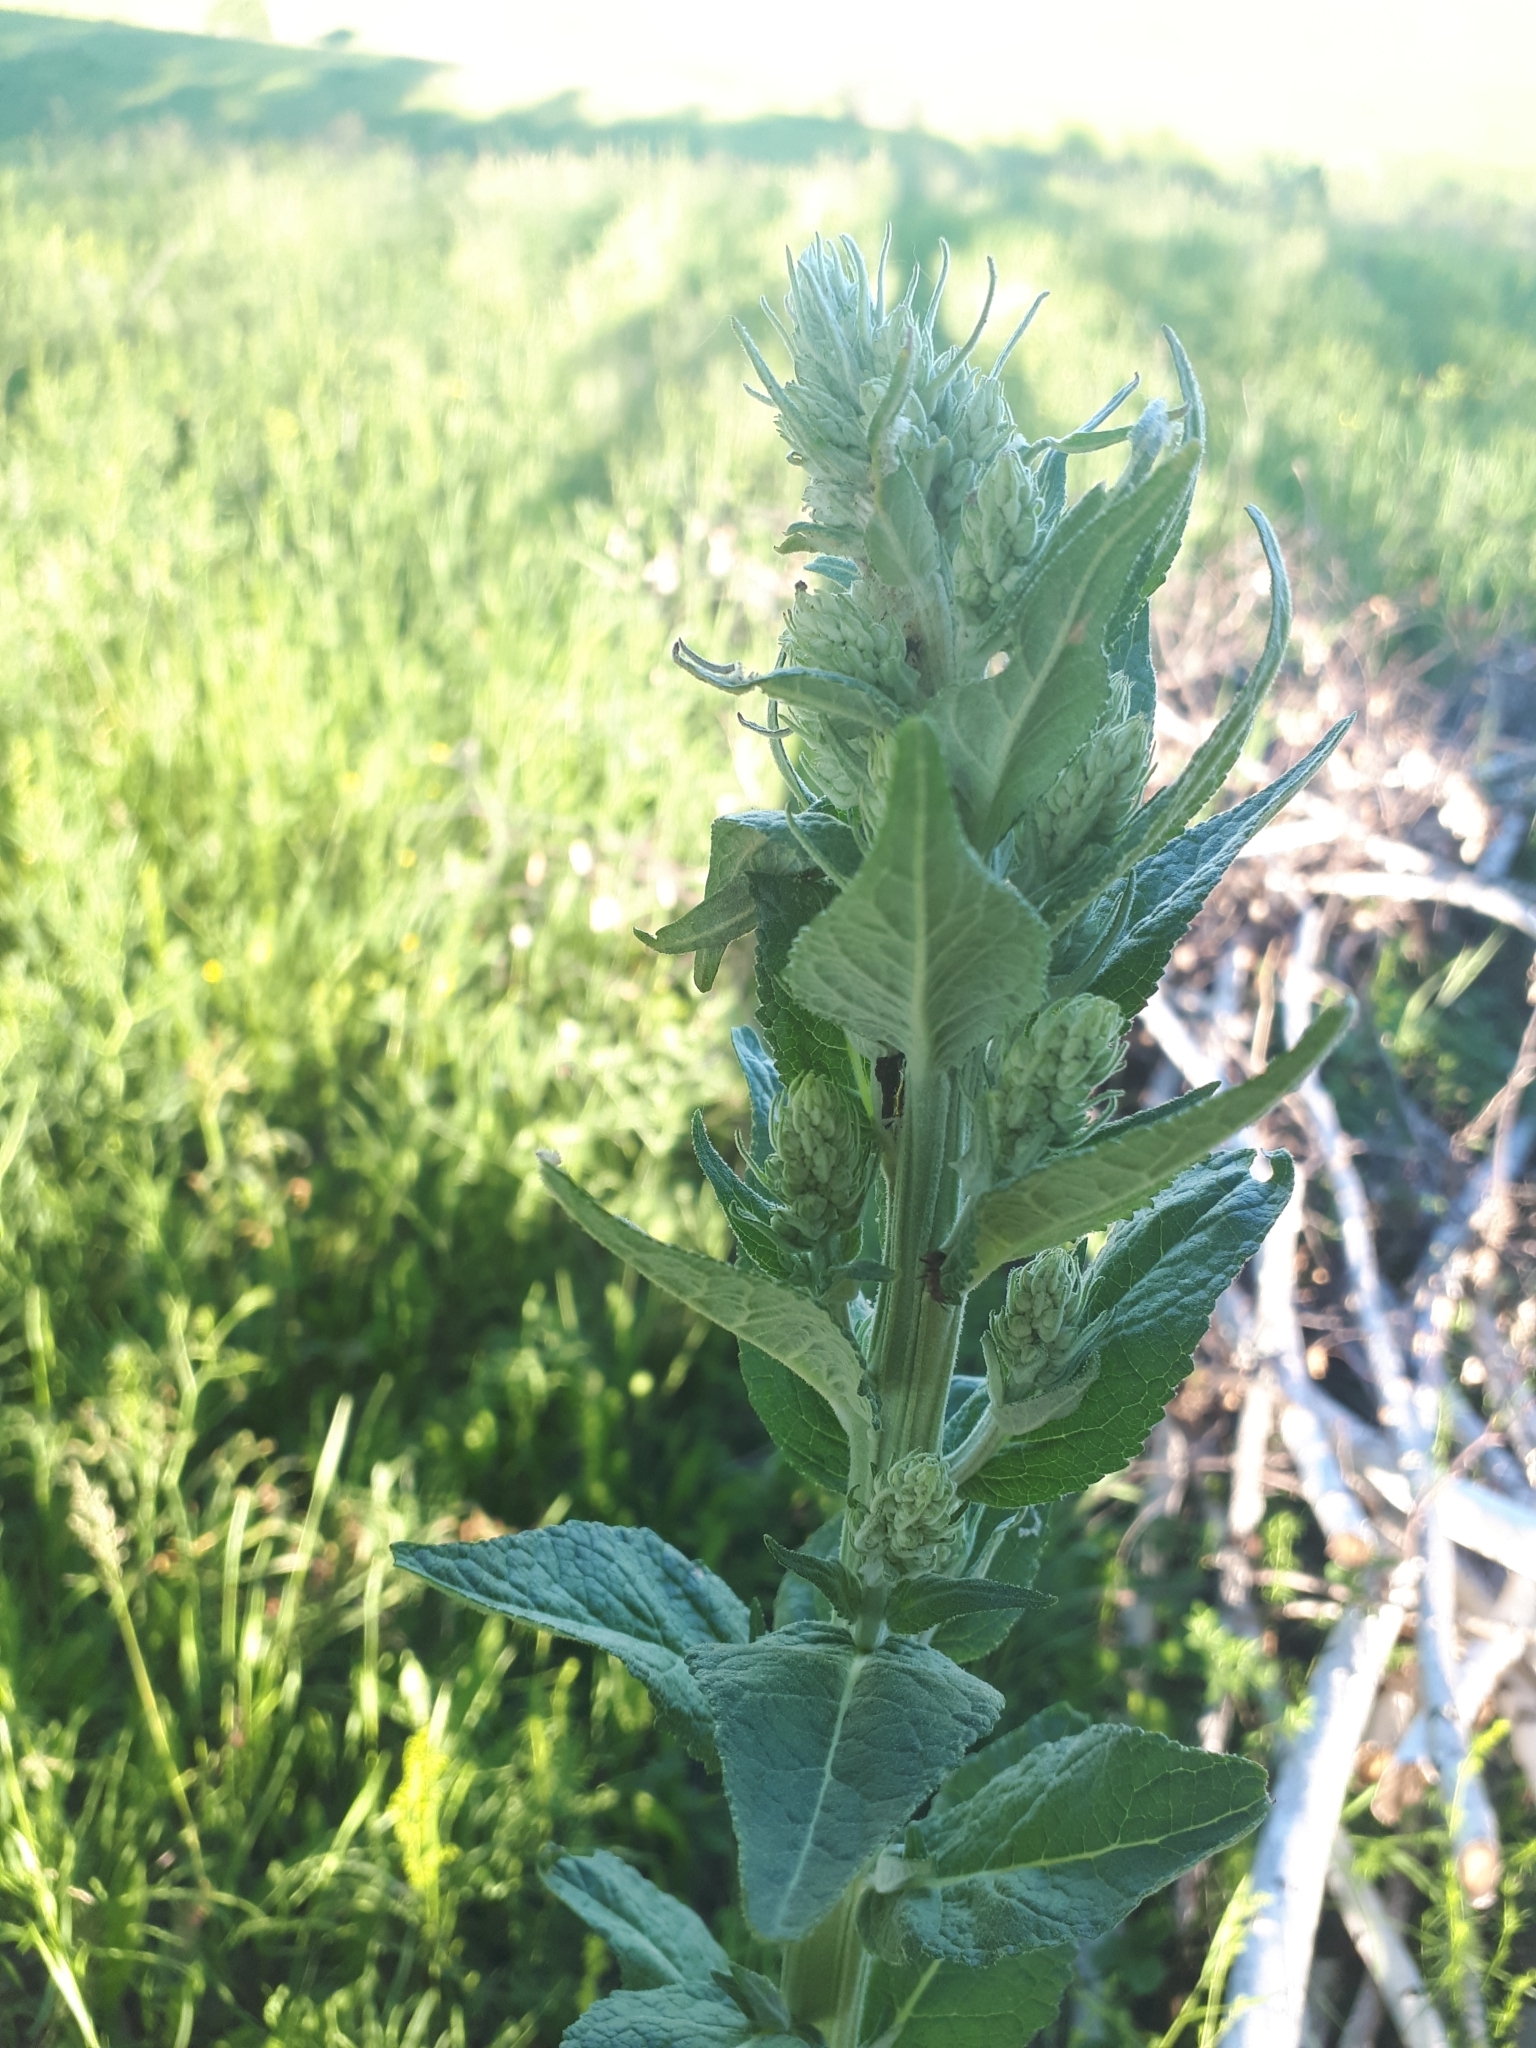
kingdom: Plantae
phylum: Tracheophyta
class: Magnoliopsida
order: Lamiales
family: Scrophulariaceae
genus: Verbascum
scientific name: Verbascum lychnitis
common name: White mullein
